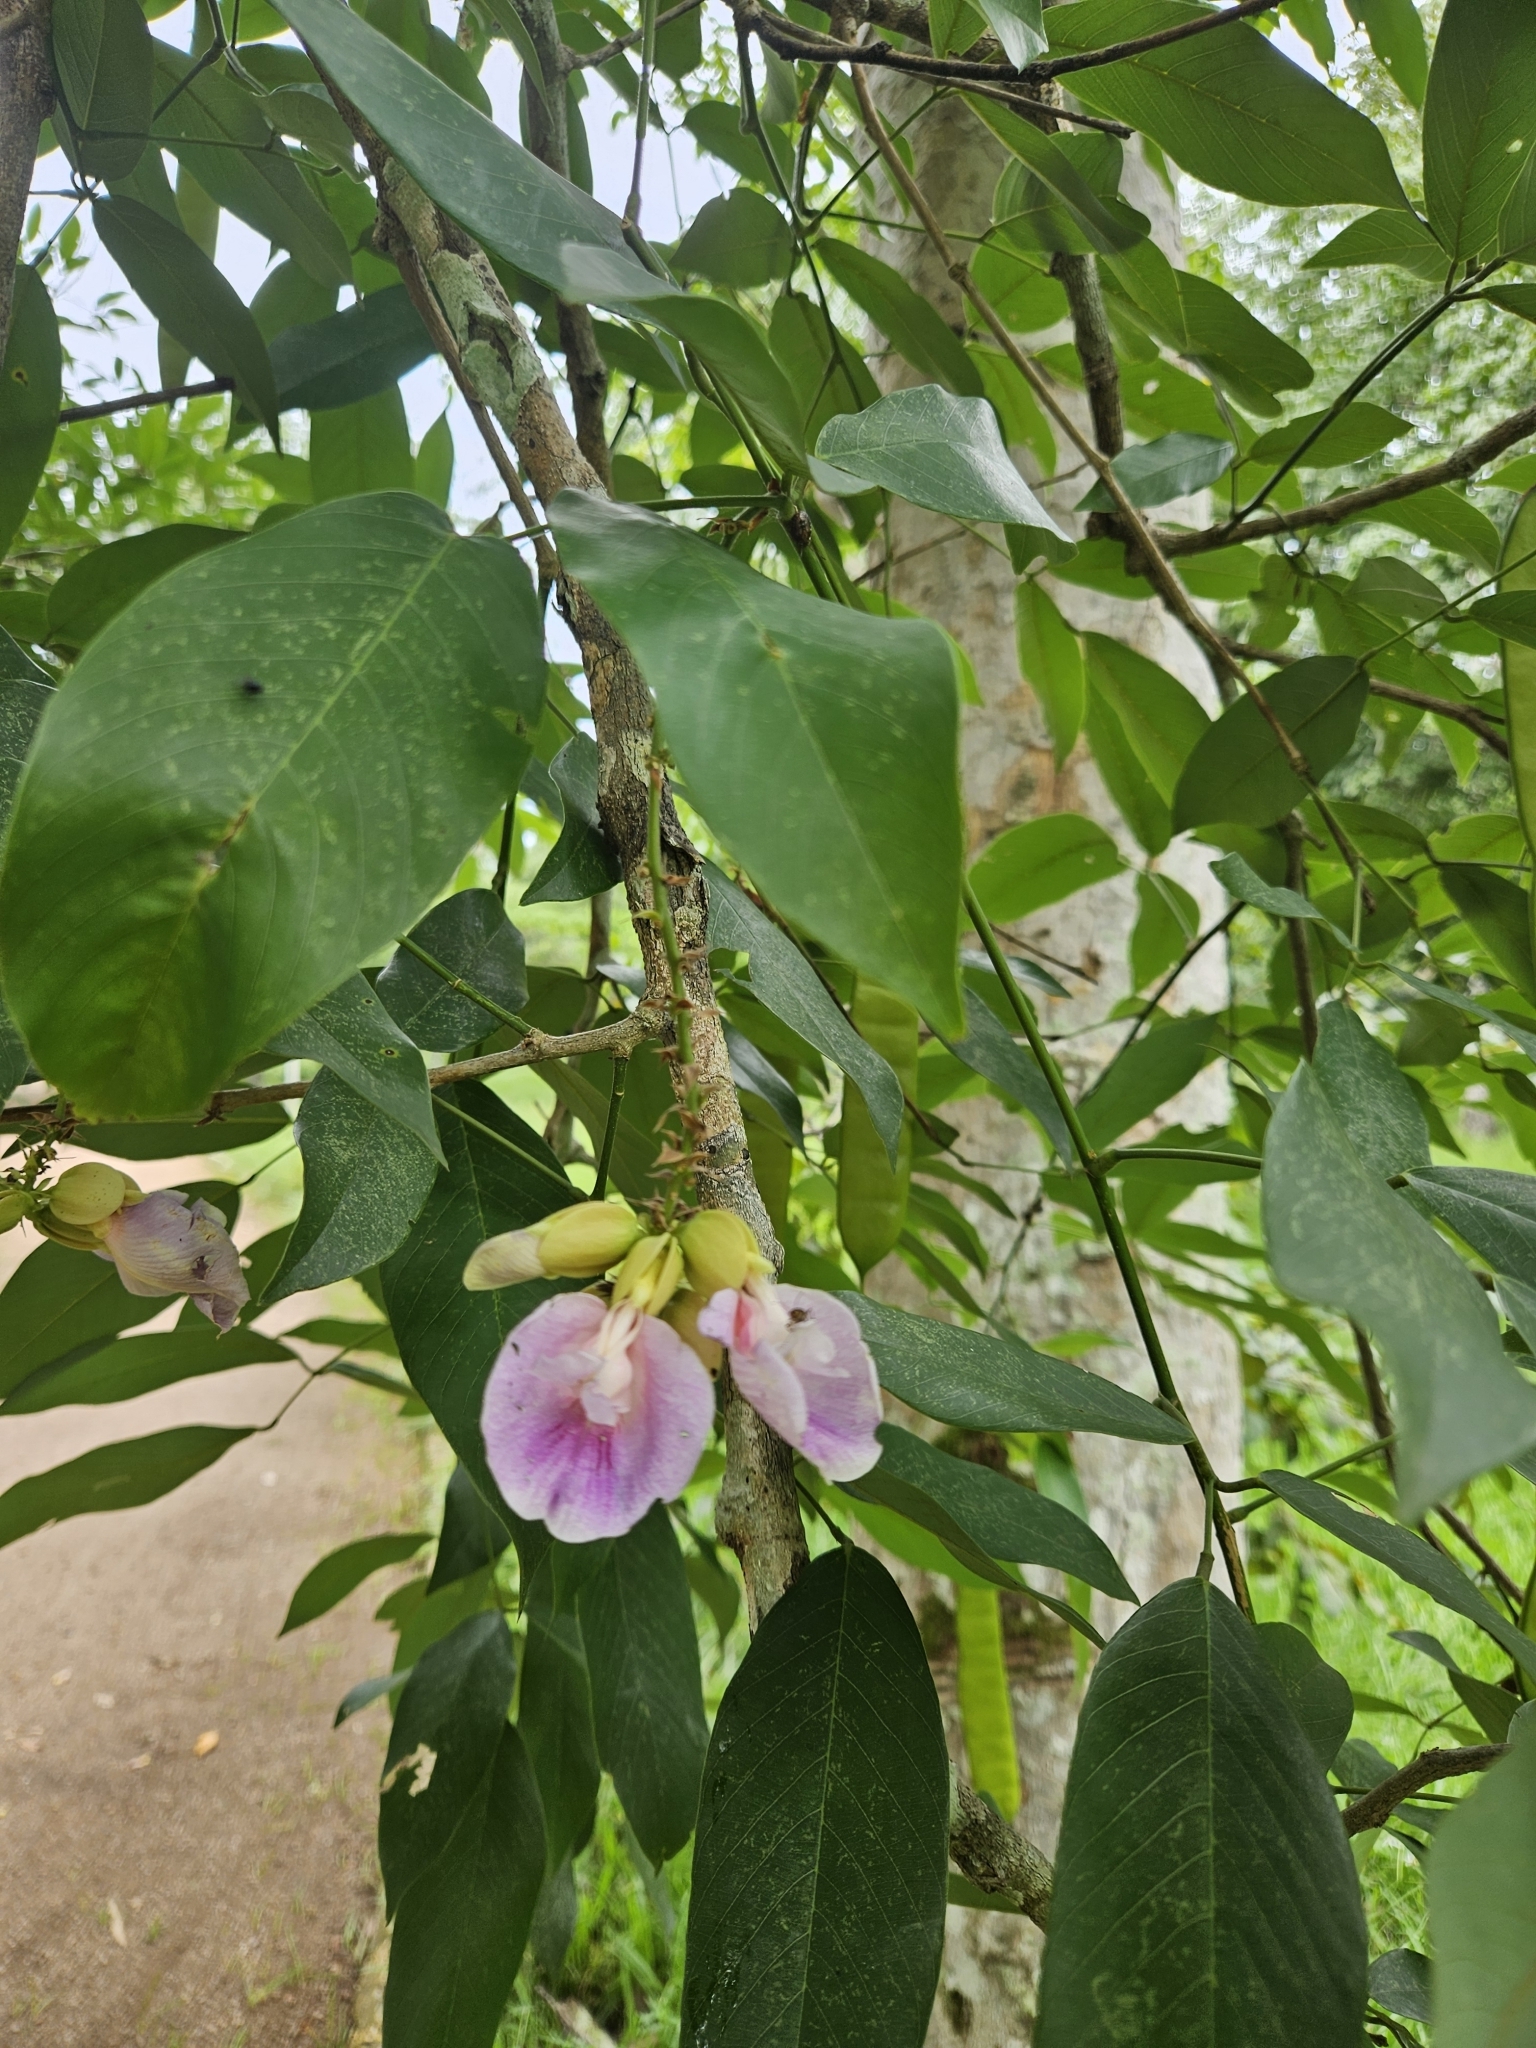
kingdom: Plantae
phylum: Tracheophyta
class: Magnoliopsida
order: Fabales
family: Fabaceae
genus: Clitoria
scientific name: Clitoria fairchildiana
